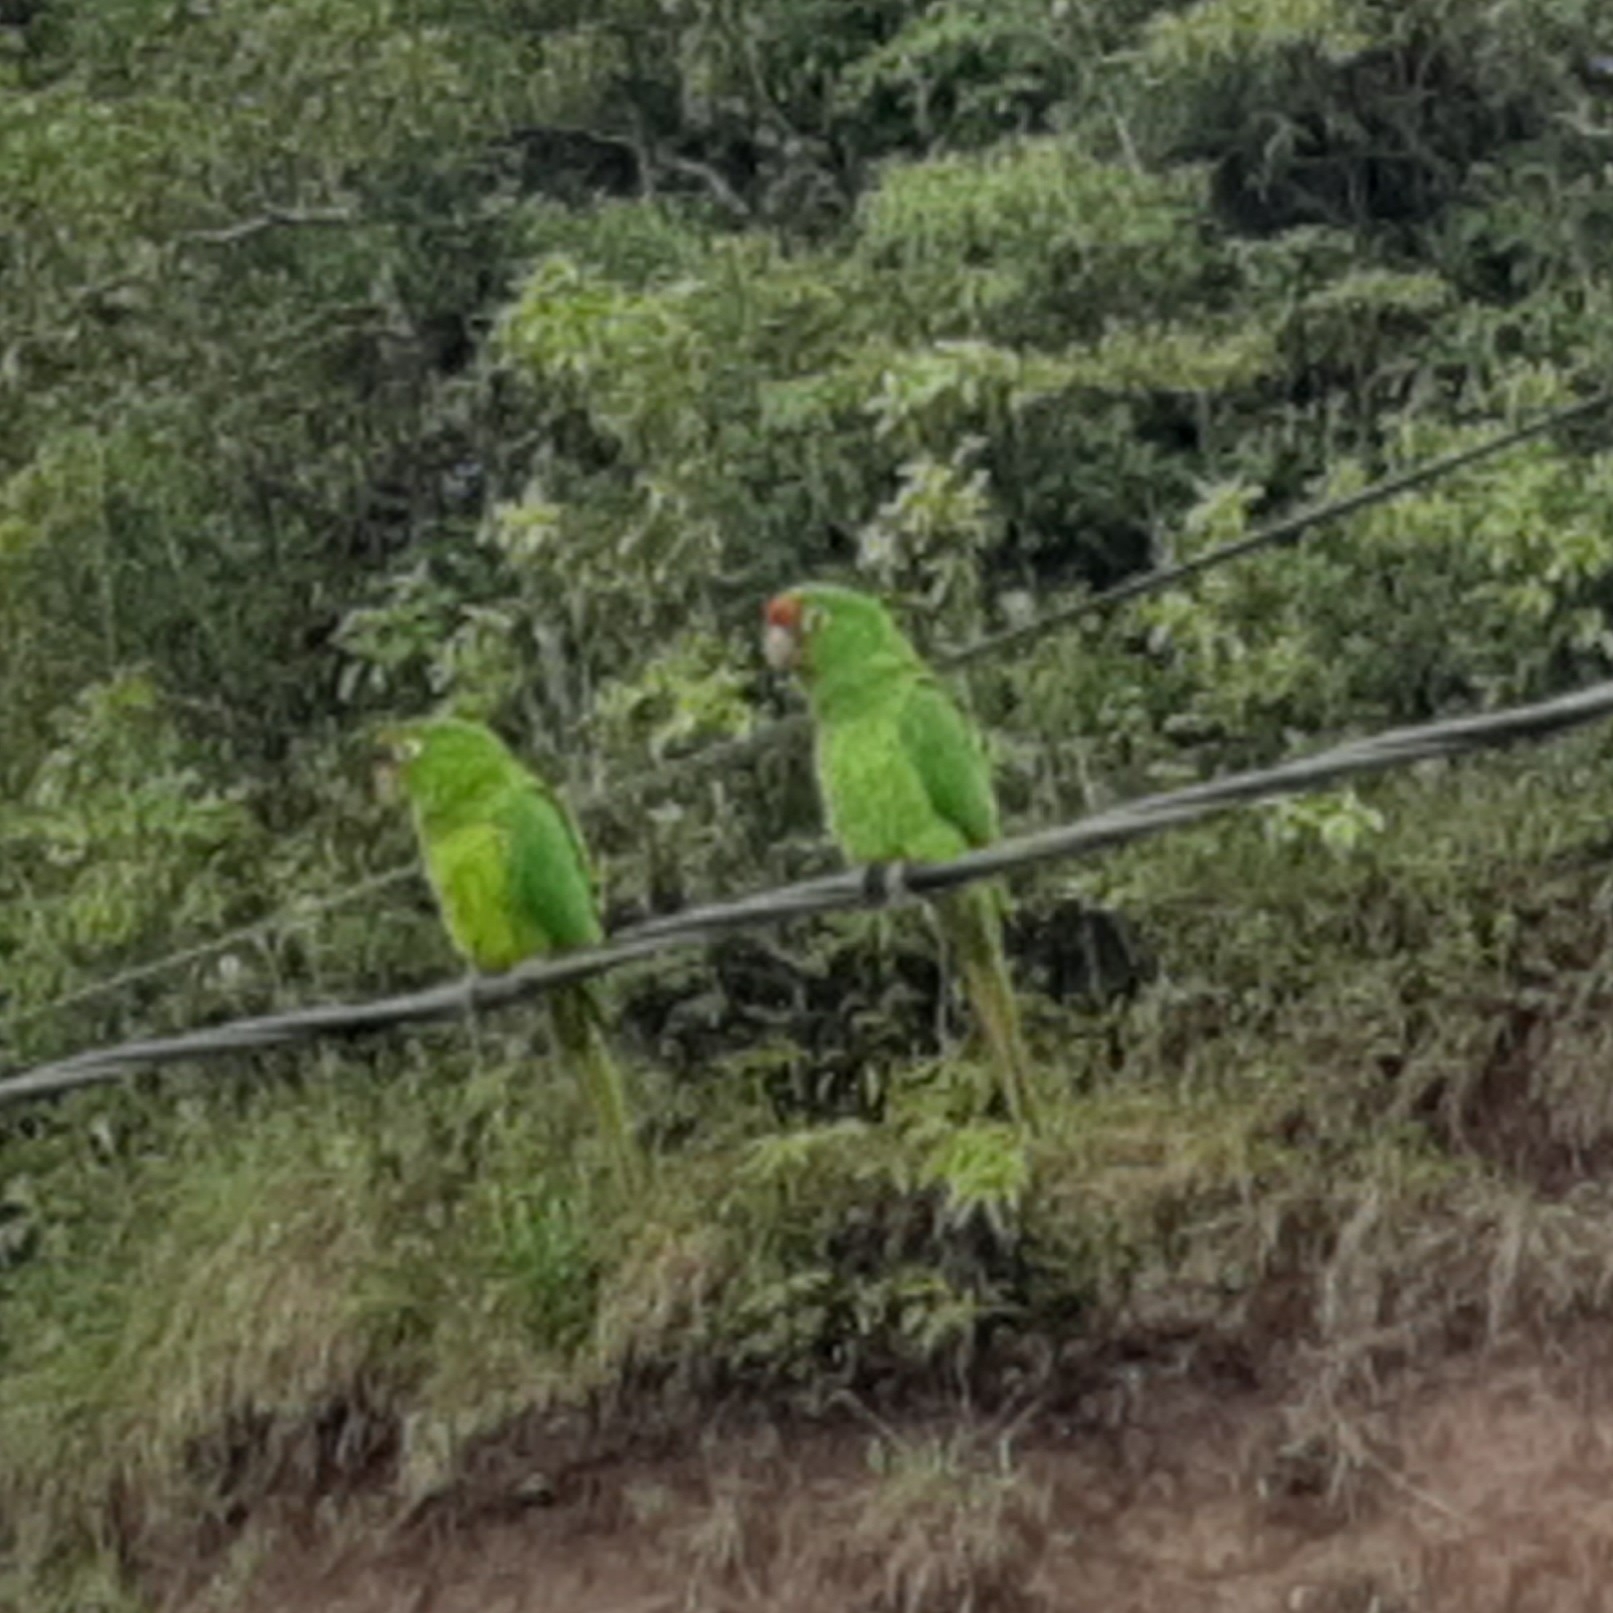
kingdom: Animalia
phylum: Chordata
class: Aves
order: Psittaciformes
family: Psittacidae
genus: Aratinga
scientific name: Aratinga finschi
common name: Crimson-fronted parakeet
